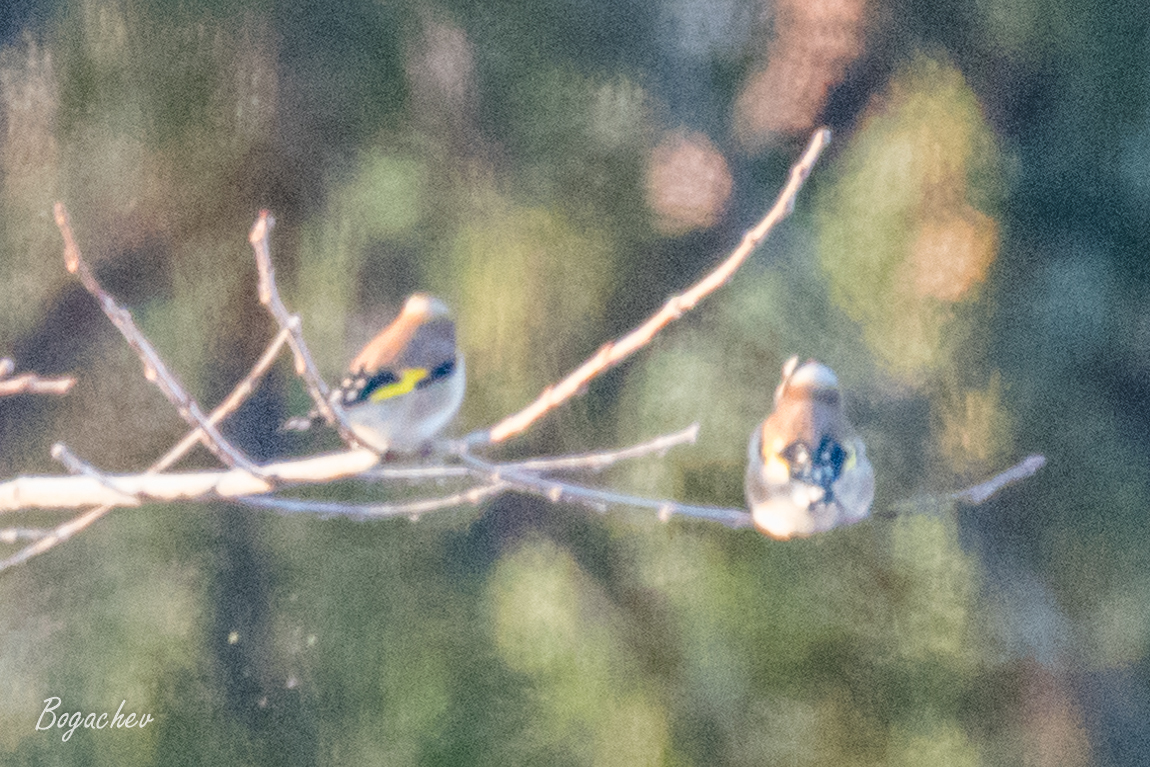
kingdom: Animalia
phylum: Chordata
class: Aves
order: Passeriformes
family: Fringillidae
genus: Carduelis
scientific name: Carduelis carduelis
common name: European goldfinch
